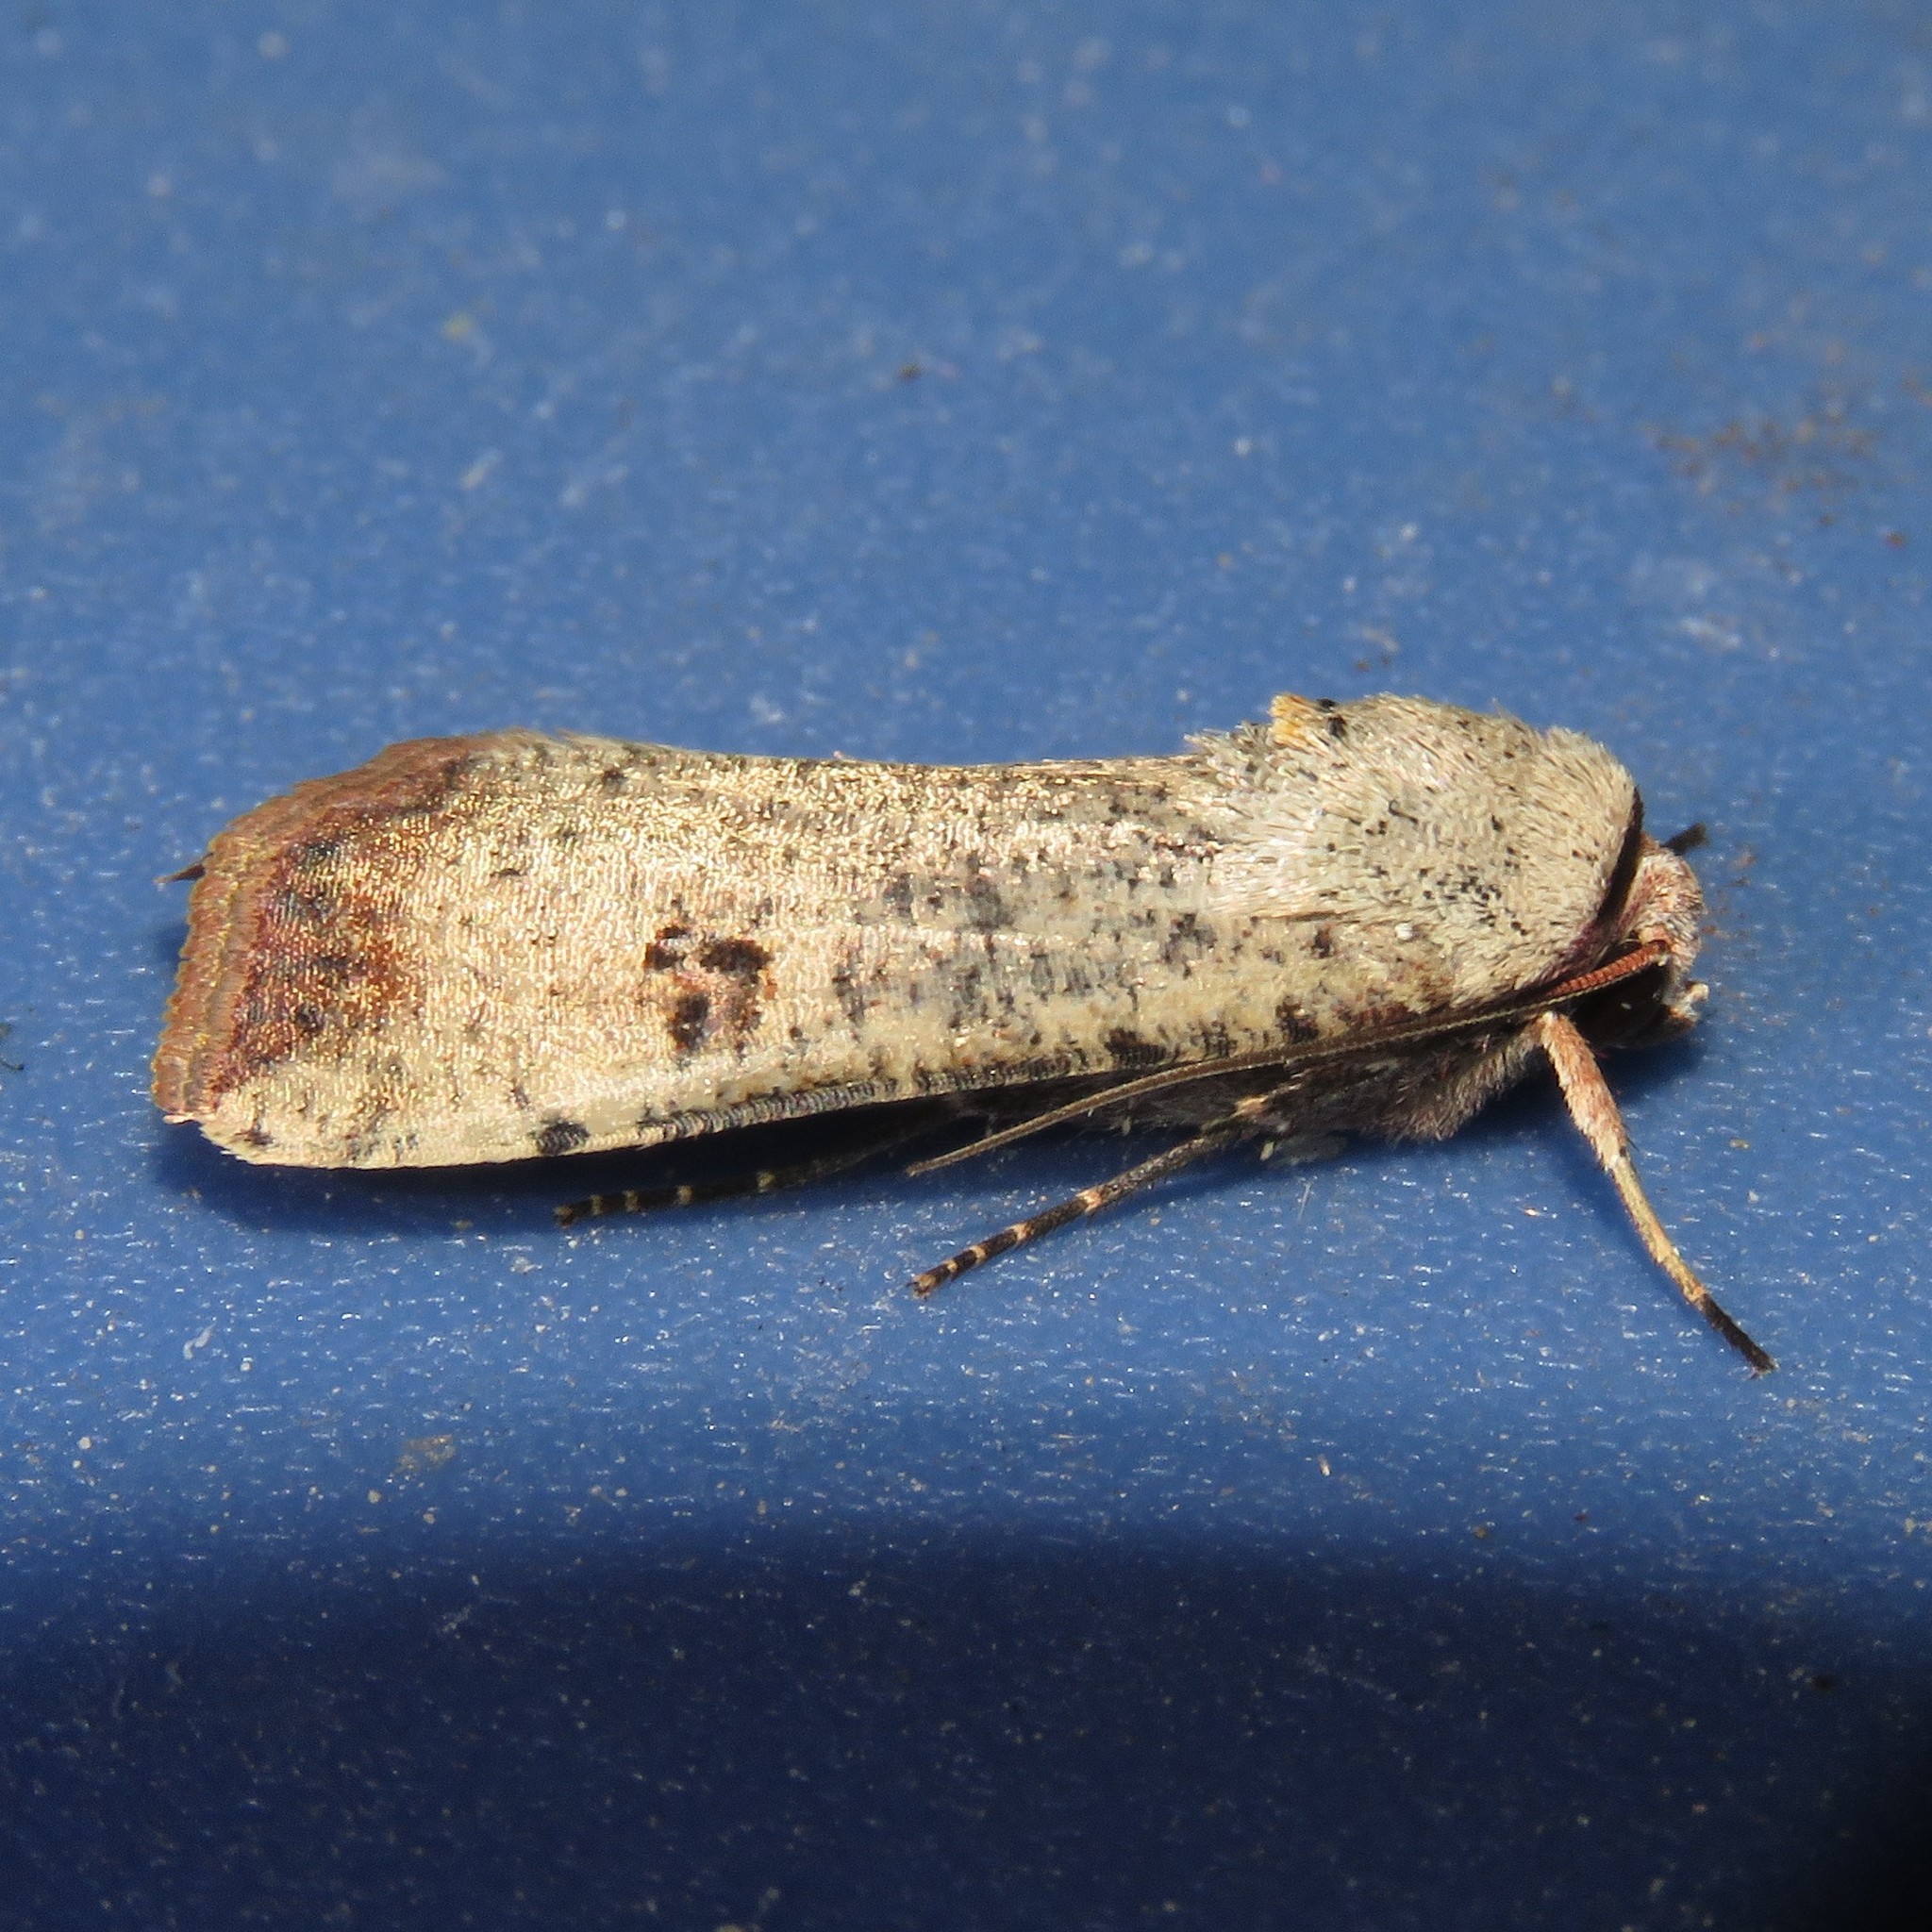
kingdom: Animalia
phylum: Arthropoda
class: Insecta
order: Lepidoptera
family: Noctuidae
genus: Anicla
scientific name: Anicla infecta
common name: Green cutworm
